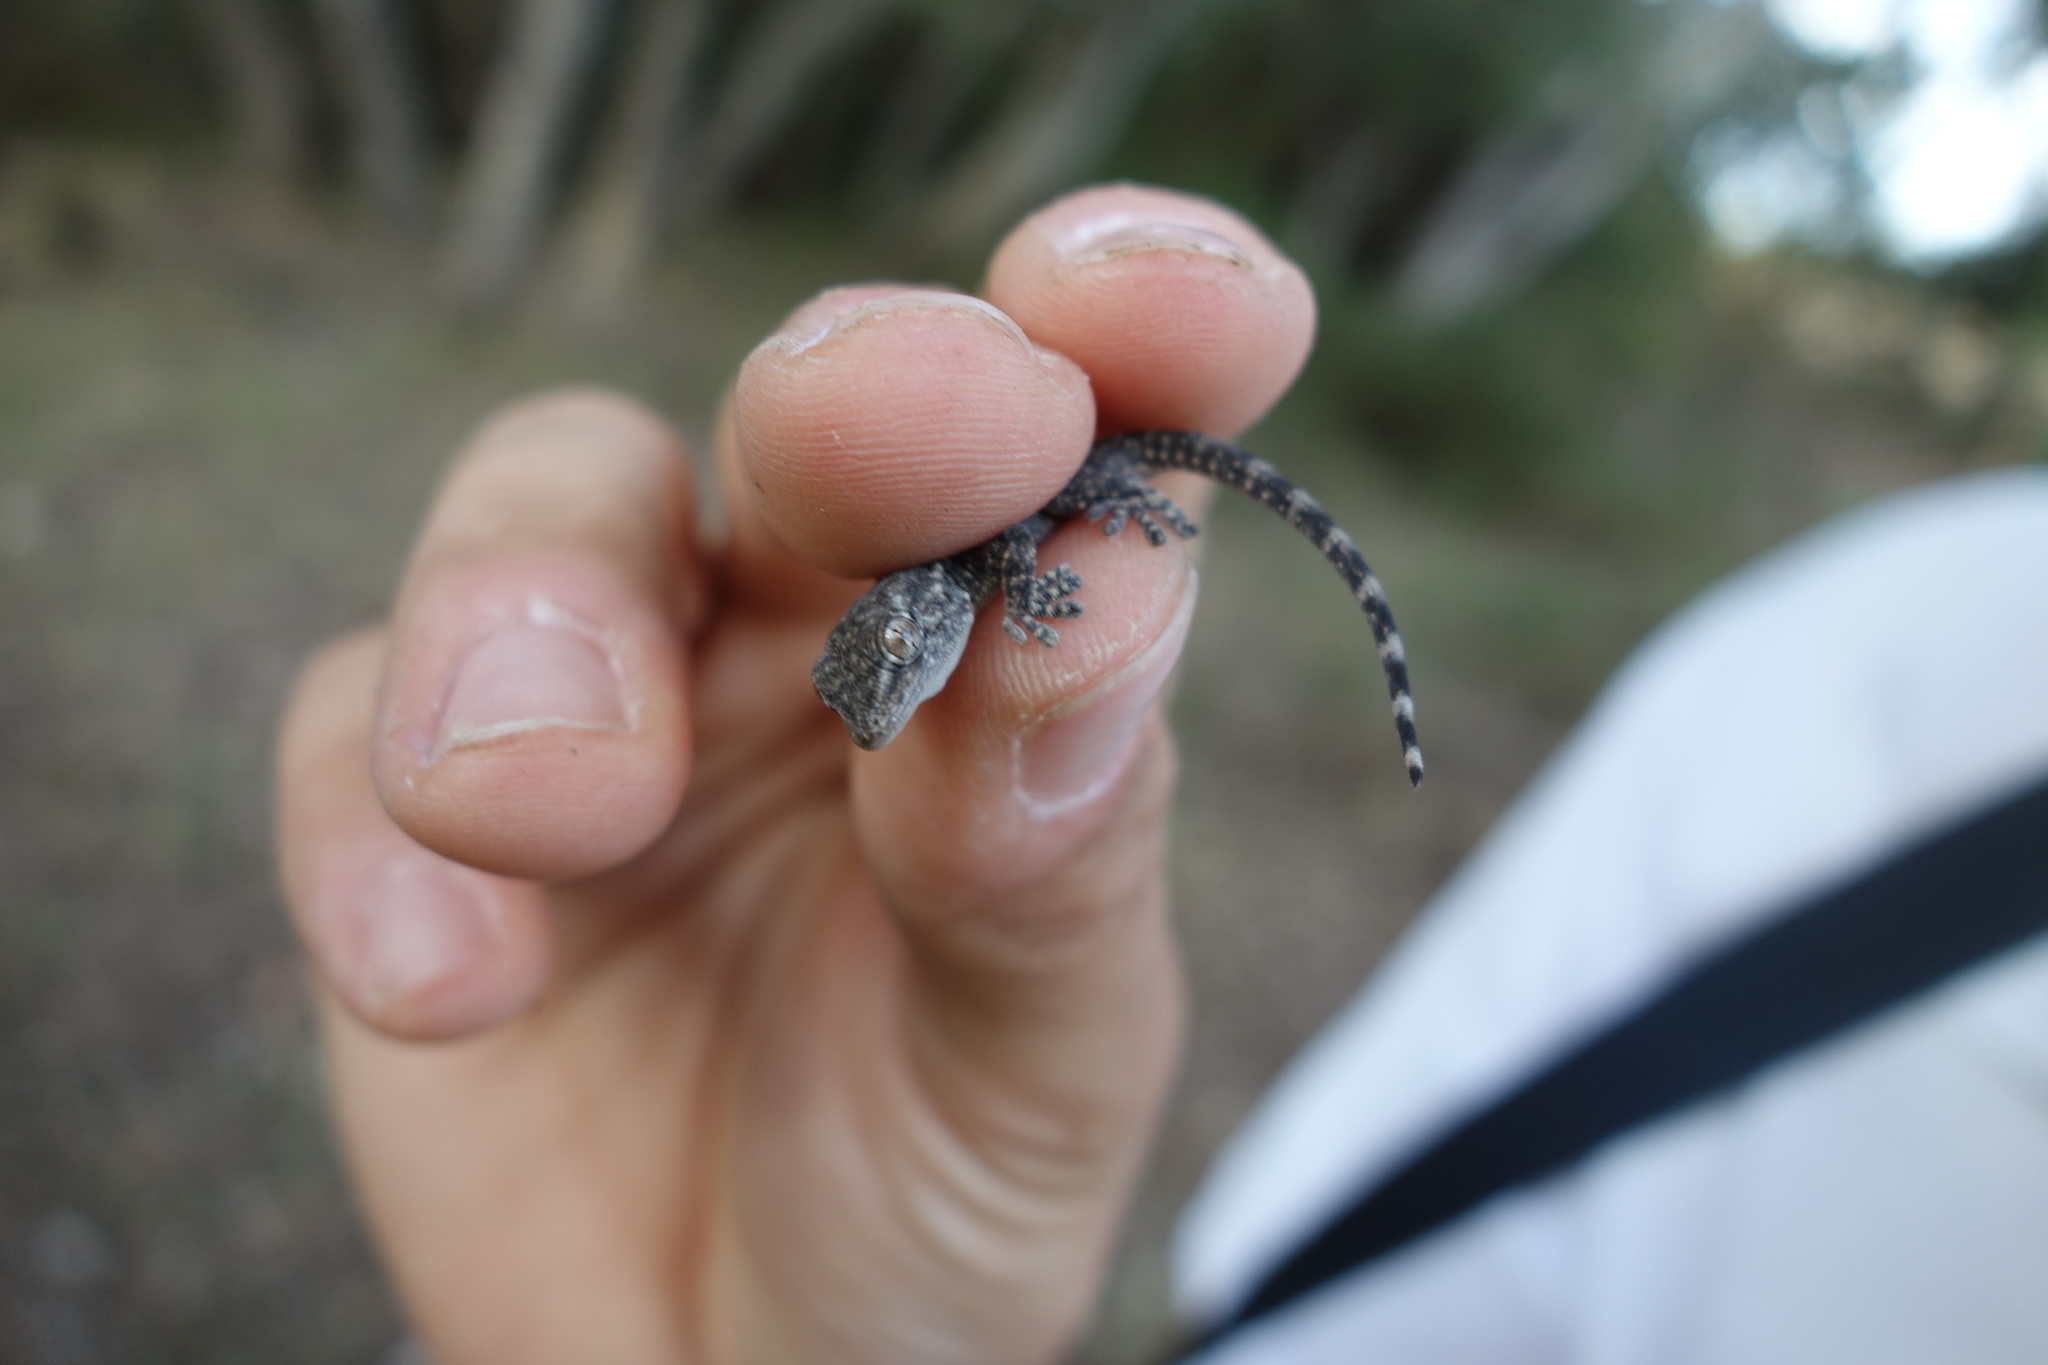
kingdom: Animalia
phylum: Chordata
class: Squamata
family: Phyllodactylidae
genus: Tarentola
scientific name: Tarentola mauritanica
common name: Moorish gecko
